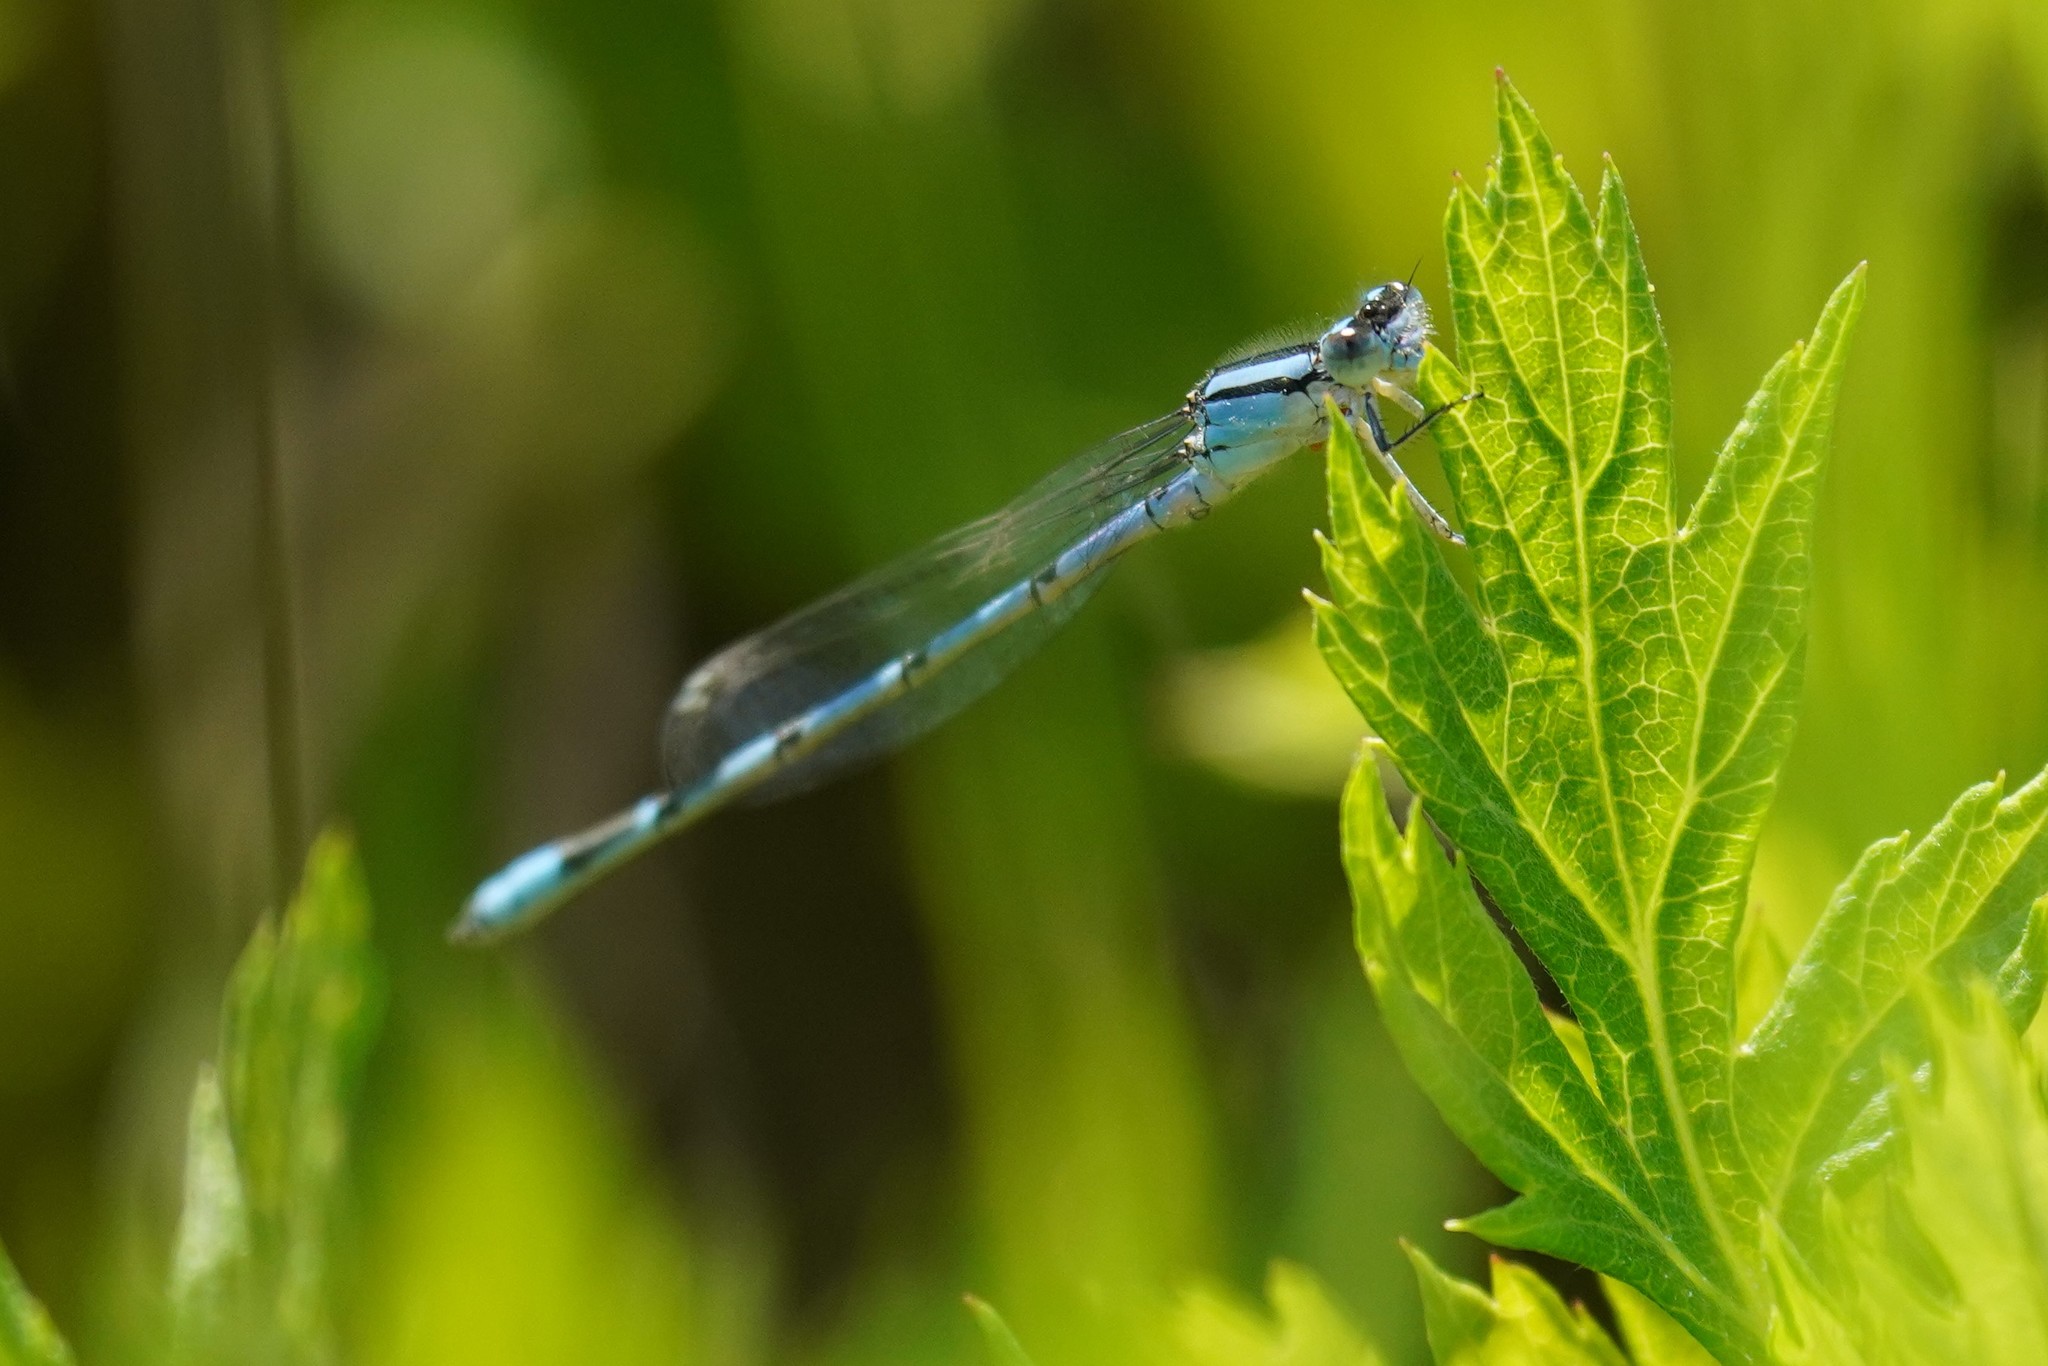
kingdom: Animalia
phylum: Arthropoda
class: Insecta
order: Odonata
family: Coenagrionidae
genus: Enallagma
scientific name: Enallagma civile
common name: Damselfly
